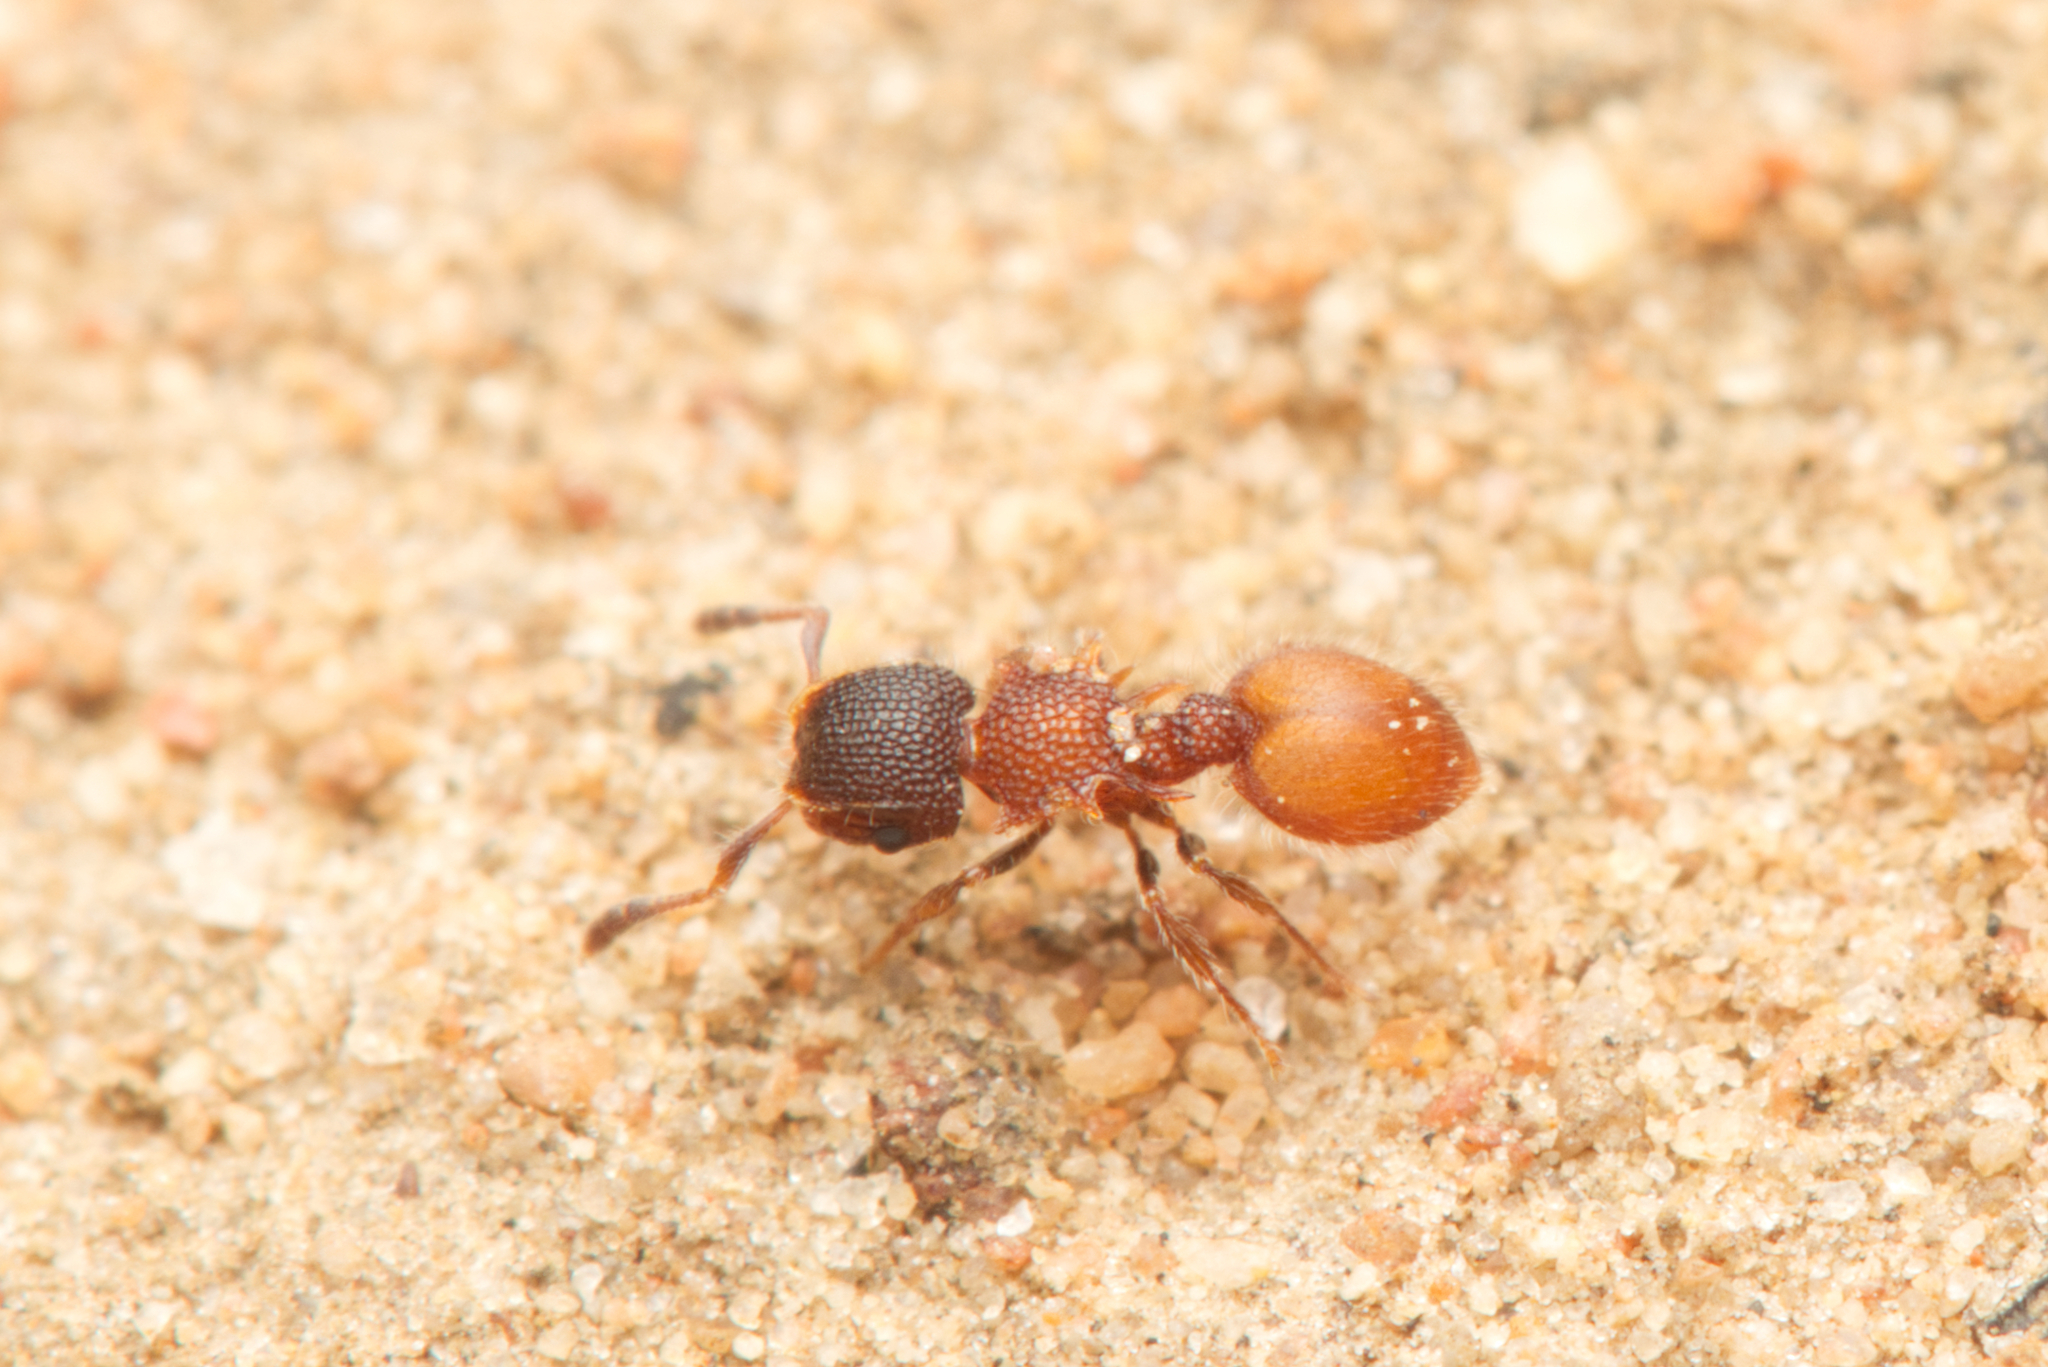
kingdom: Animalia
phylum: Arthropoda
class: Insecta
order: Hymenoptera
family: Formicidae
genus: Meranoplus
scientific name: Meranoplus
